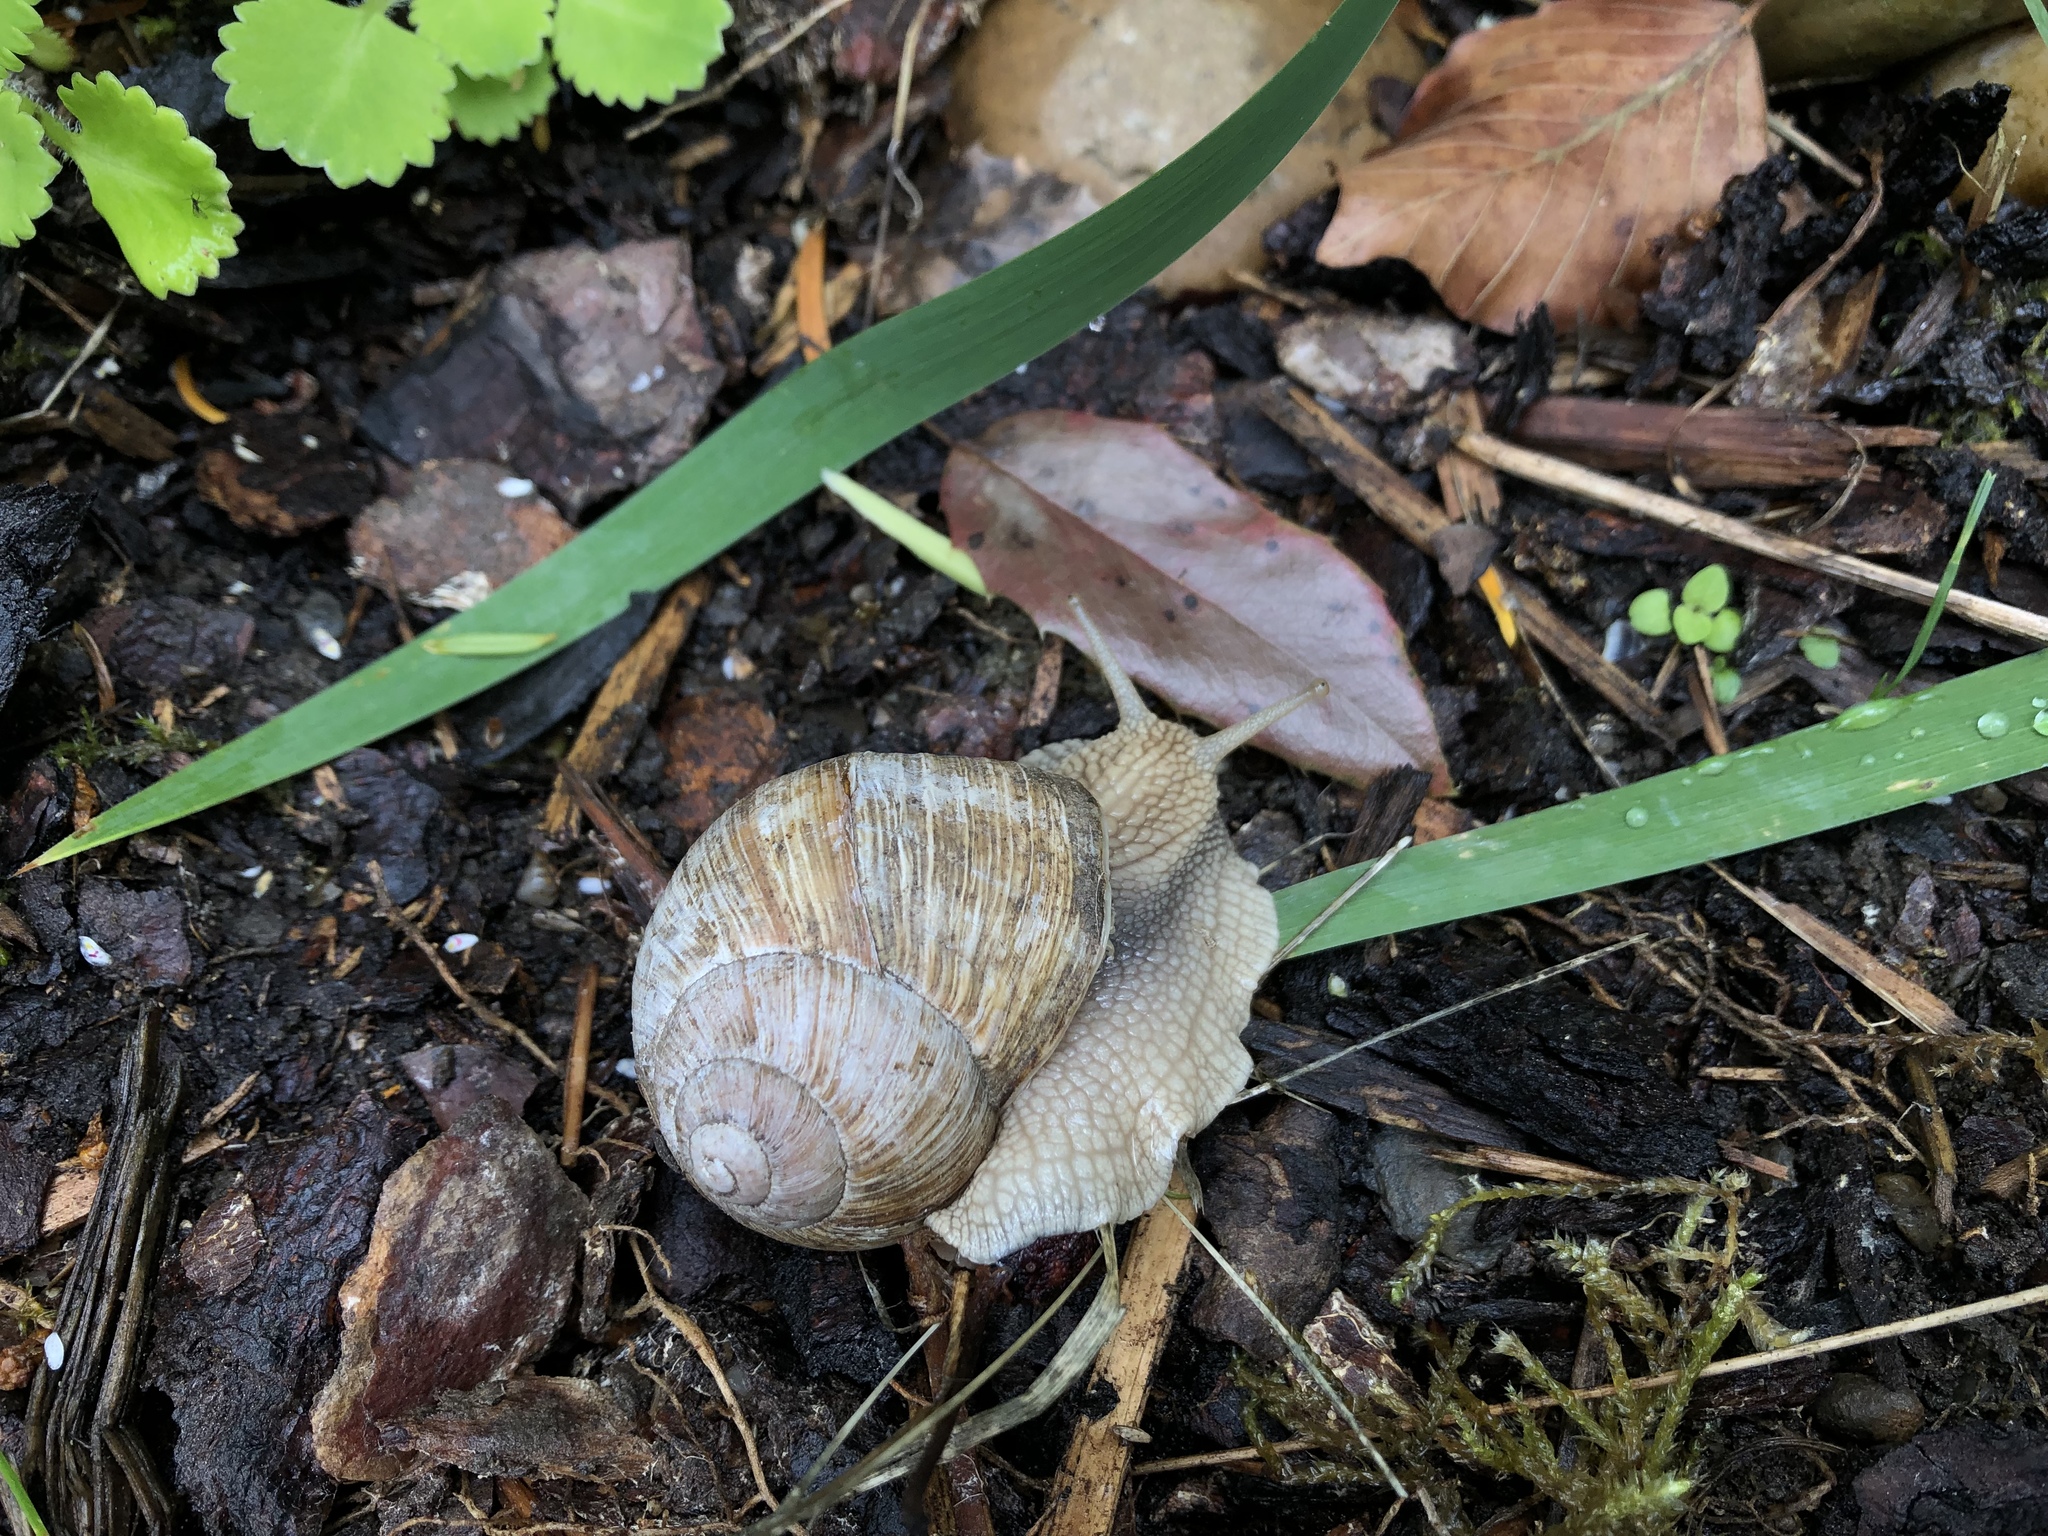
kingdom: Animalia
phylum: Mollusca
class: Gastropoda
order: Stylommatophora
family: Helicidae
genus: Helix
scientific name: Helix pomatia
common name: Roman snail
